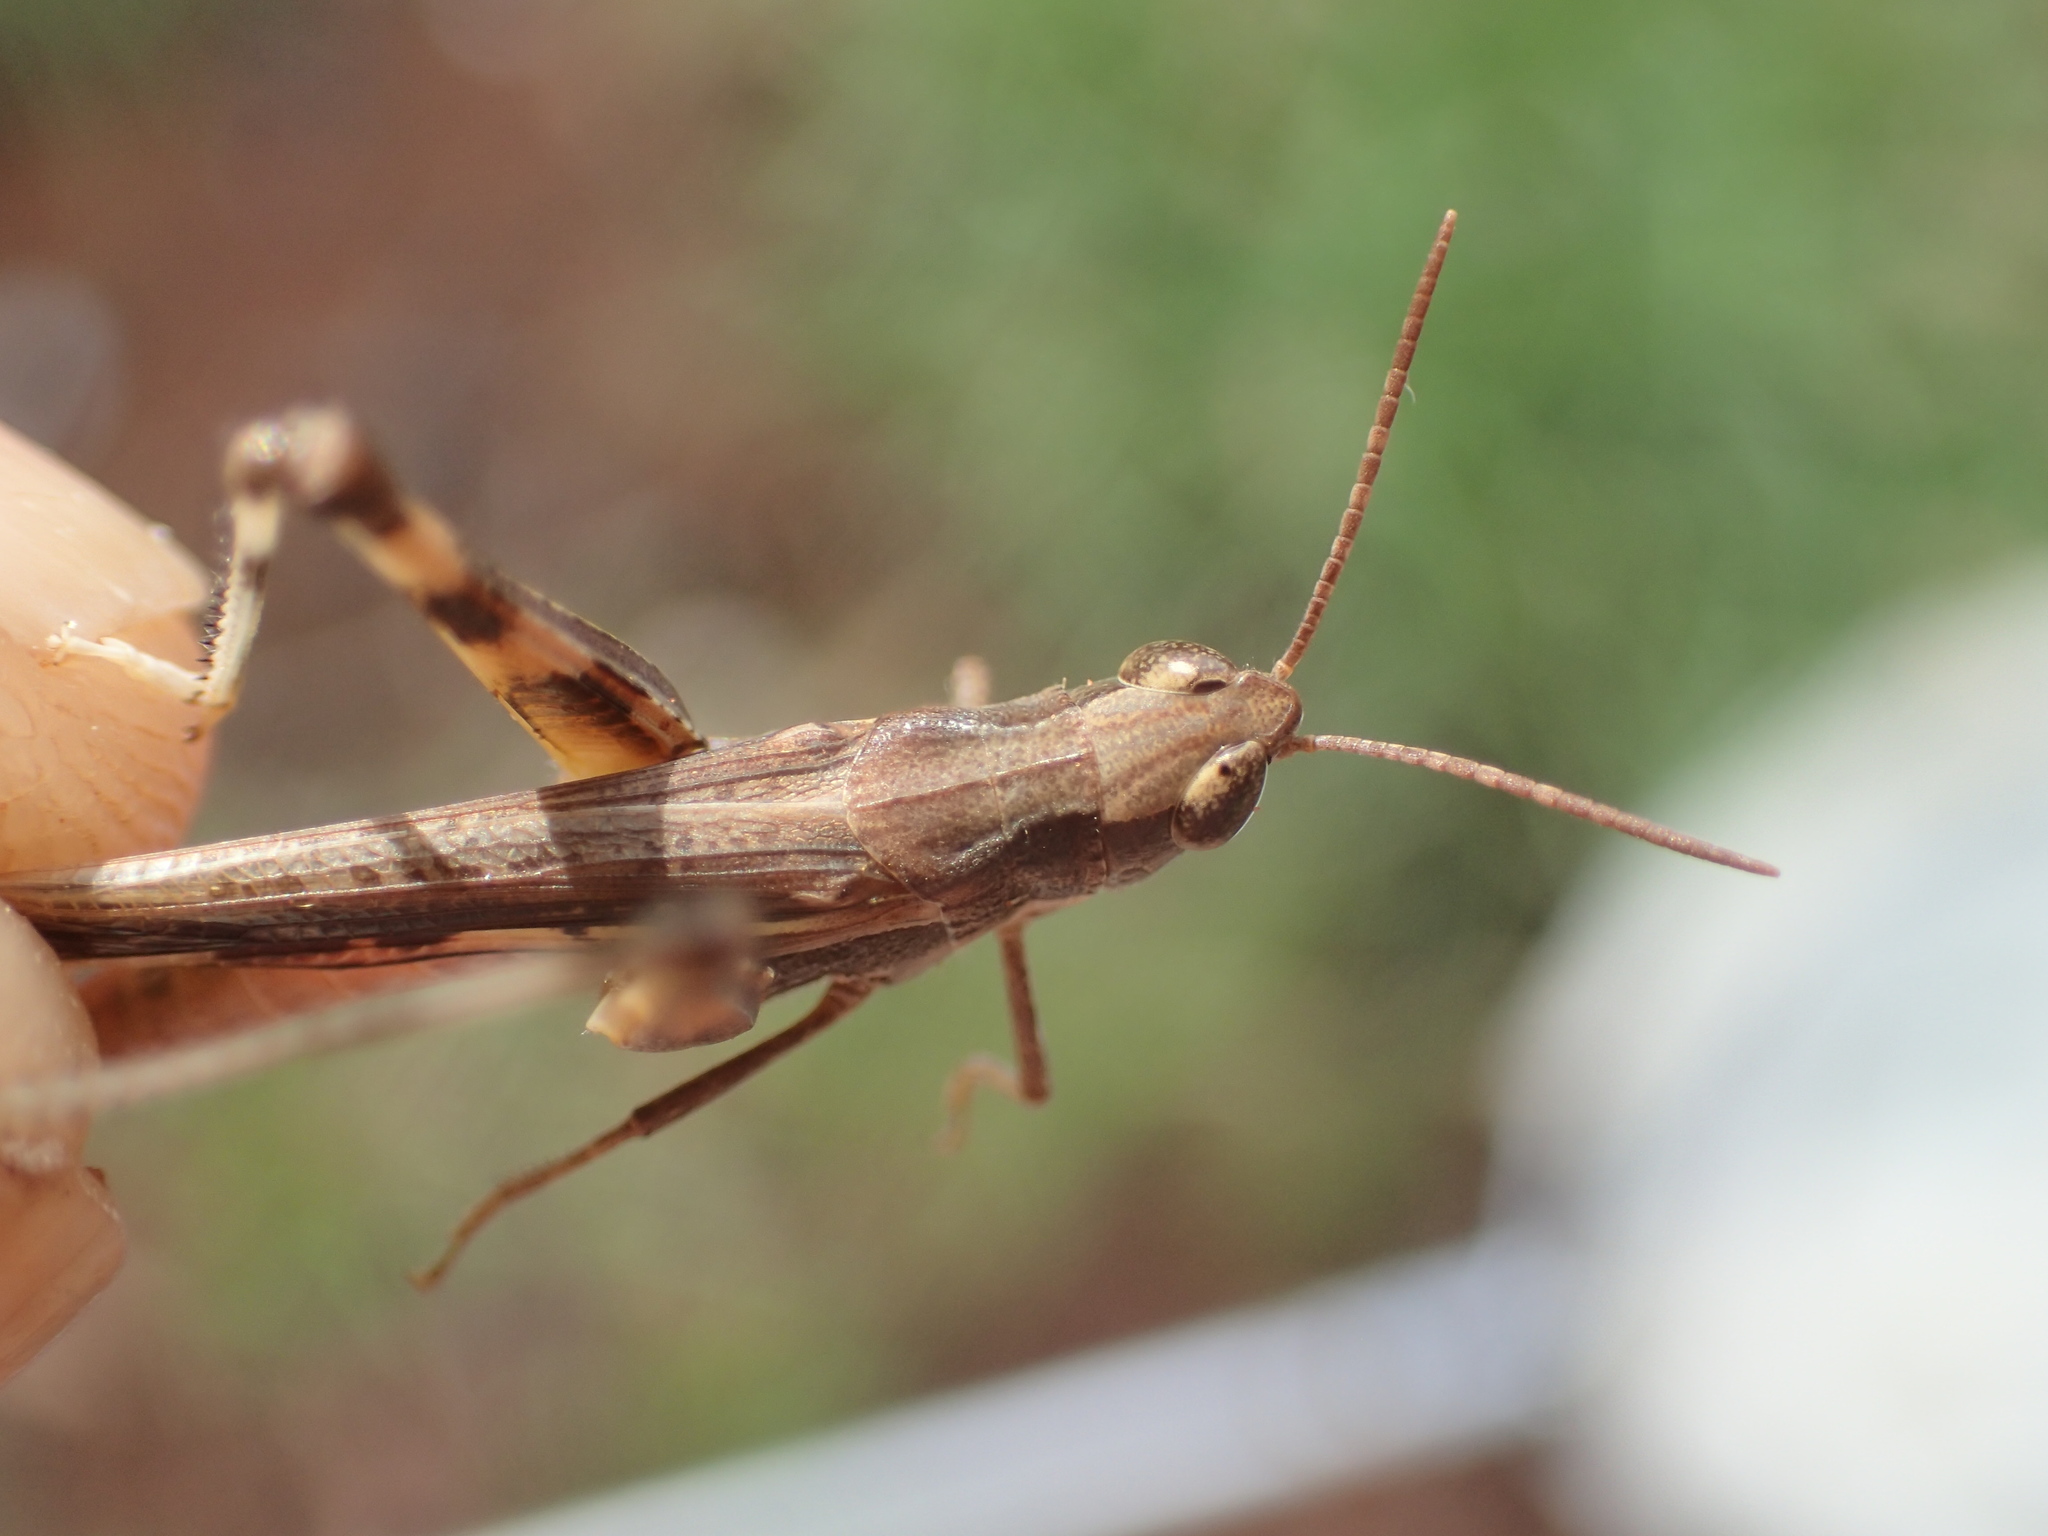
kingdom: Animalia
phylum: Arthropoda
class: Insecta
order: Orthoptera
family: Acrididae
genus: Aiolopus
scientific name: Aiolopus thalassinus
